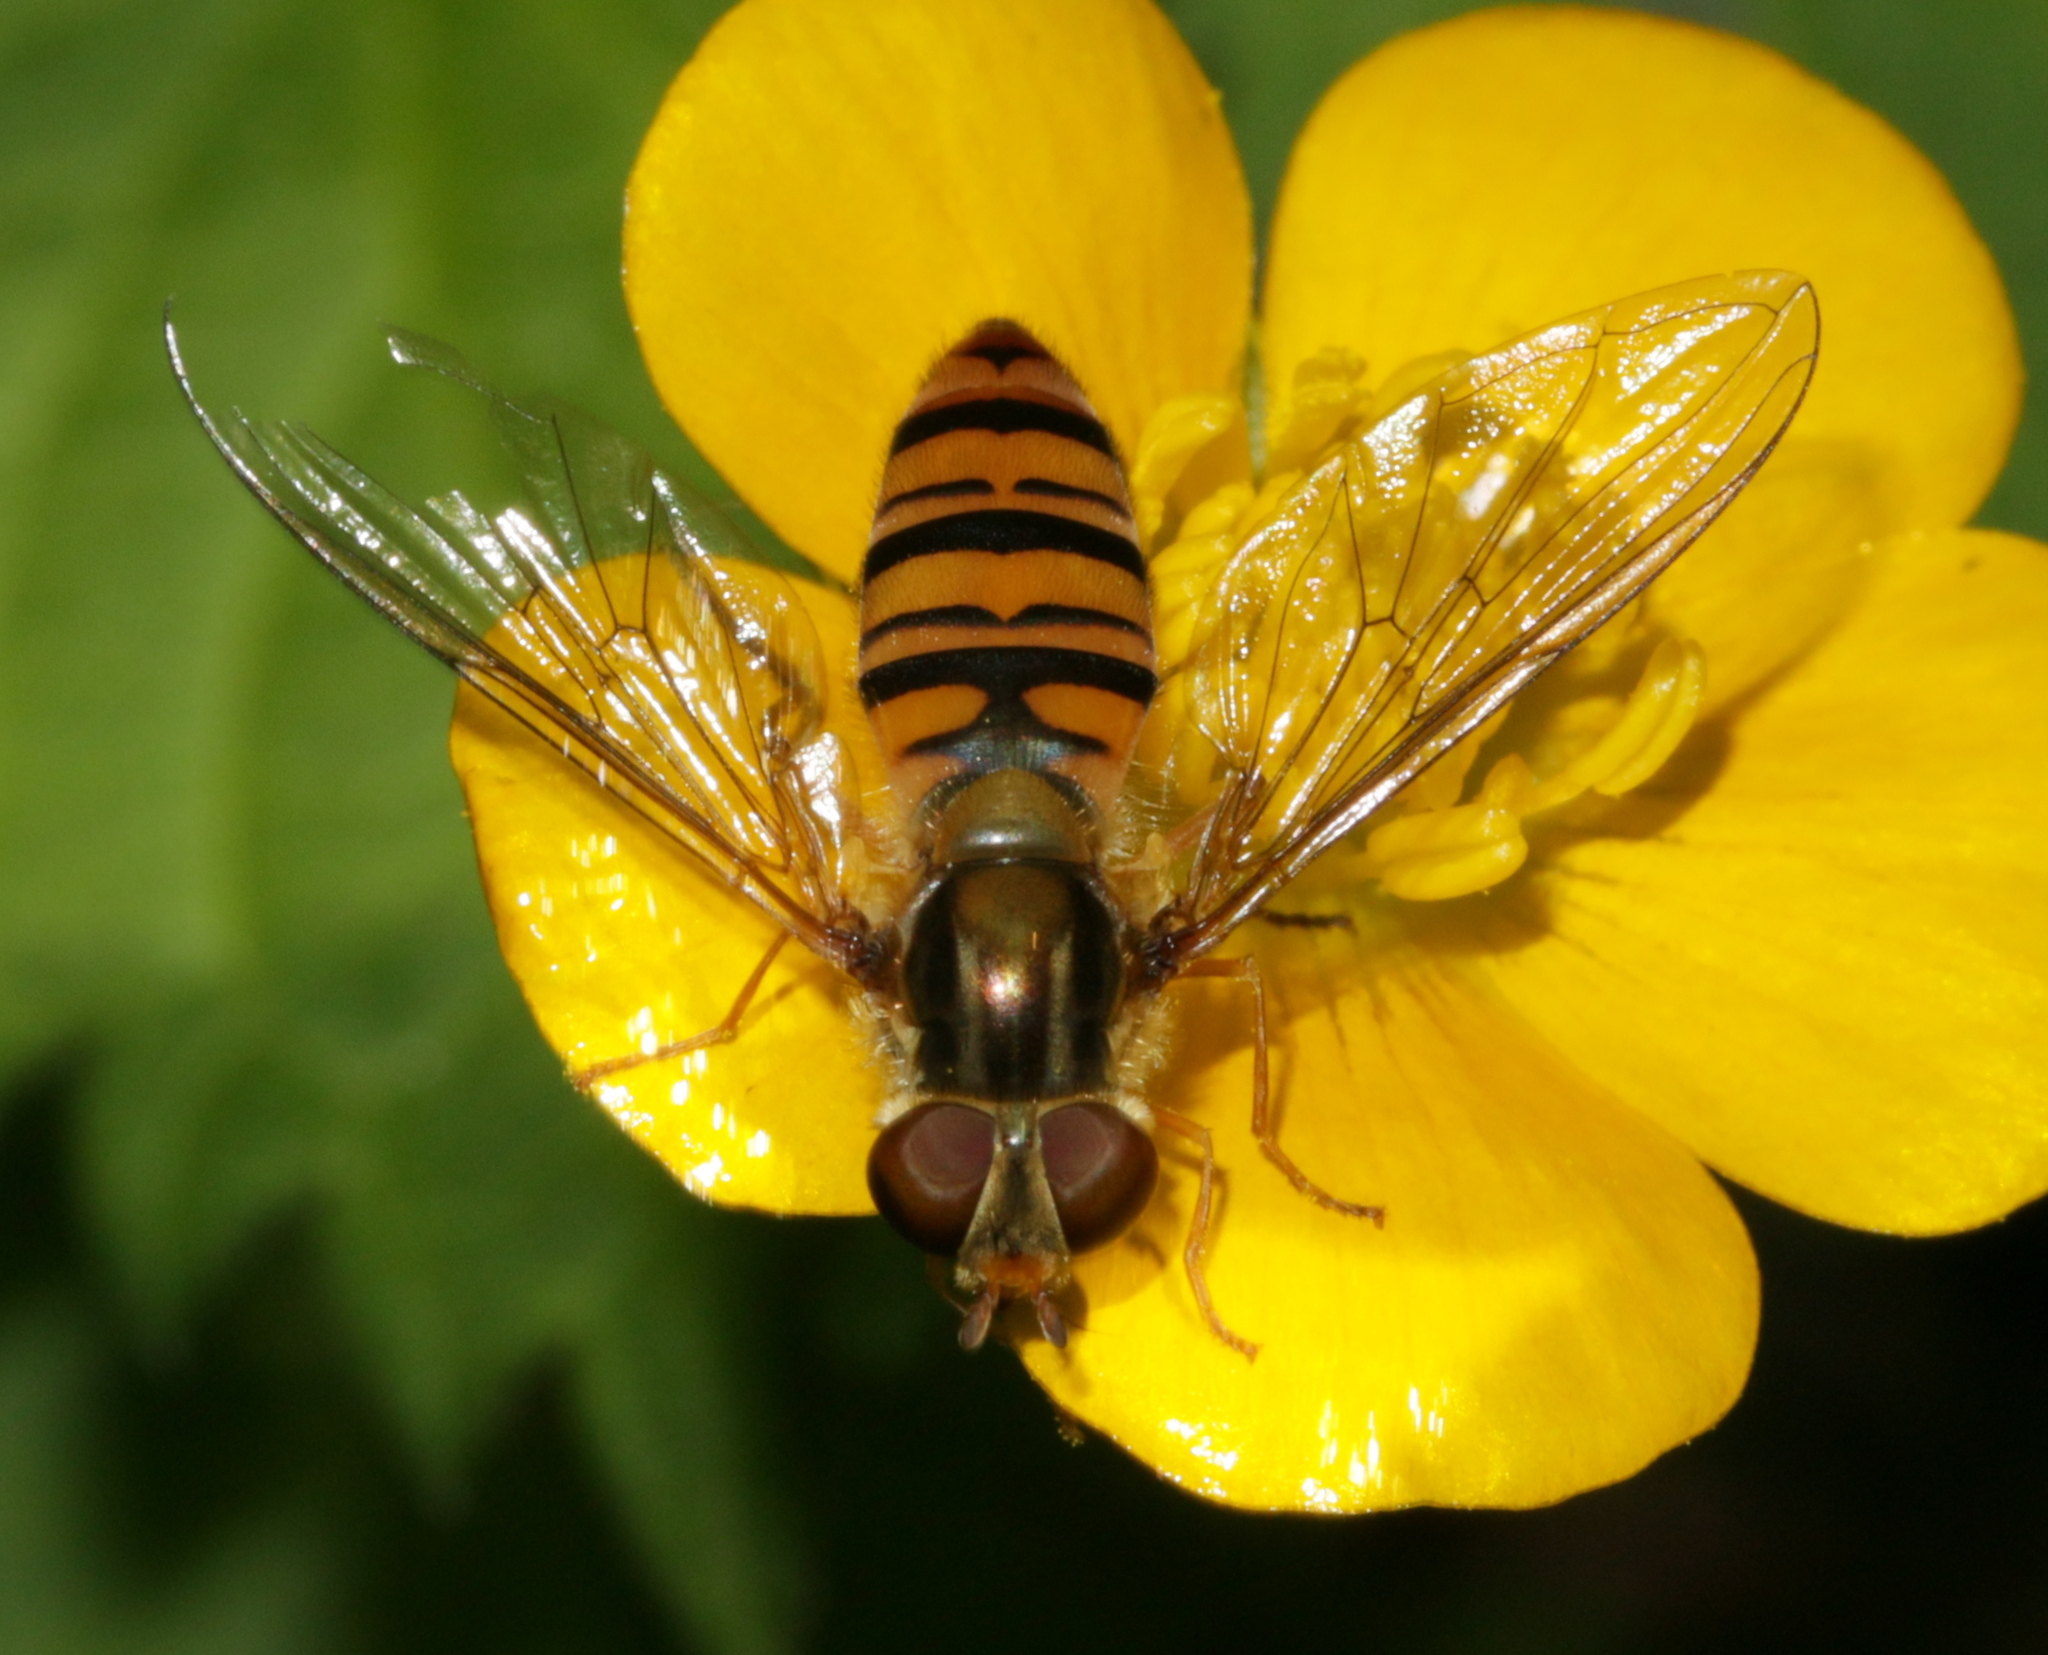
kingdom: Animalia
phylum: Arthropoda
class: Insecta
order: Diptera
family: Syrphidae
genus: Episyrphus
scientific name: Episyrphus balteatus
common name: Marmalade hoverfly
